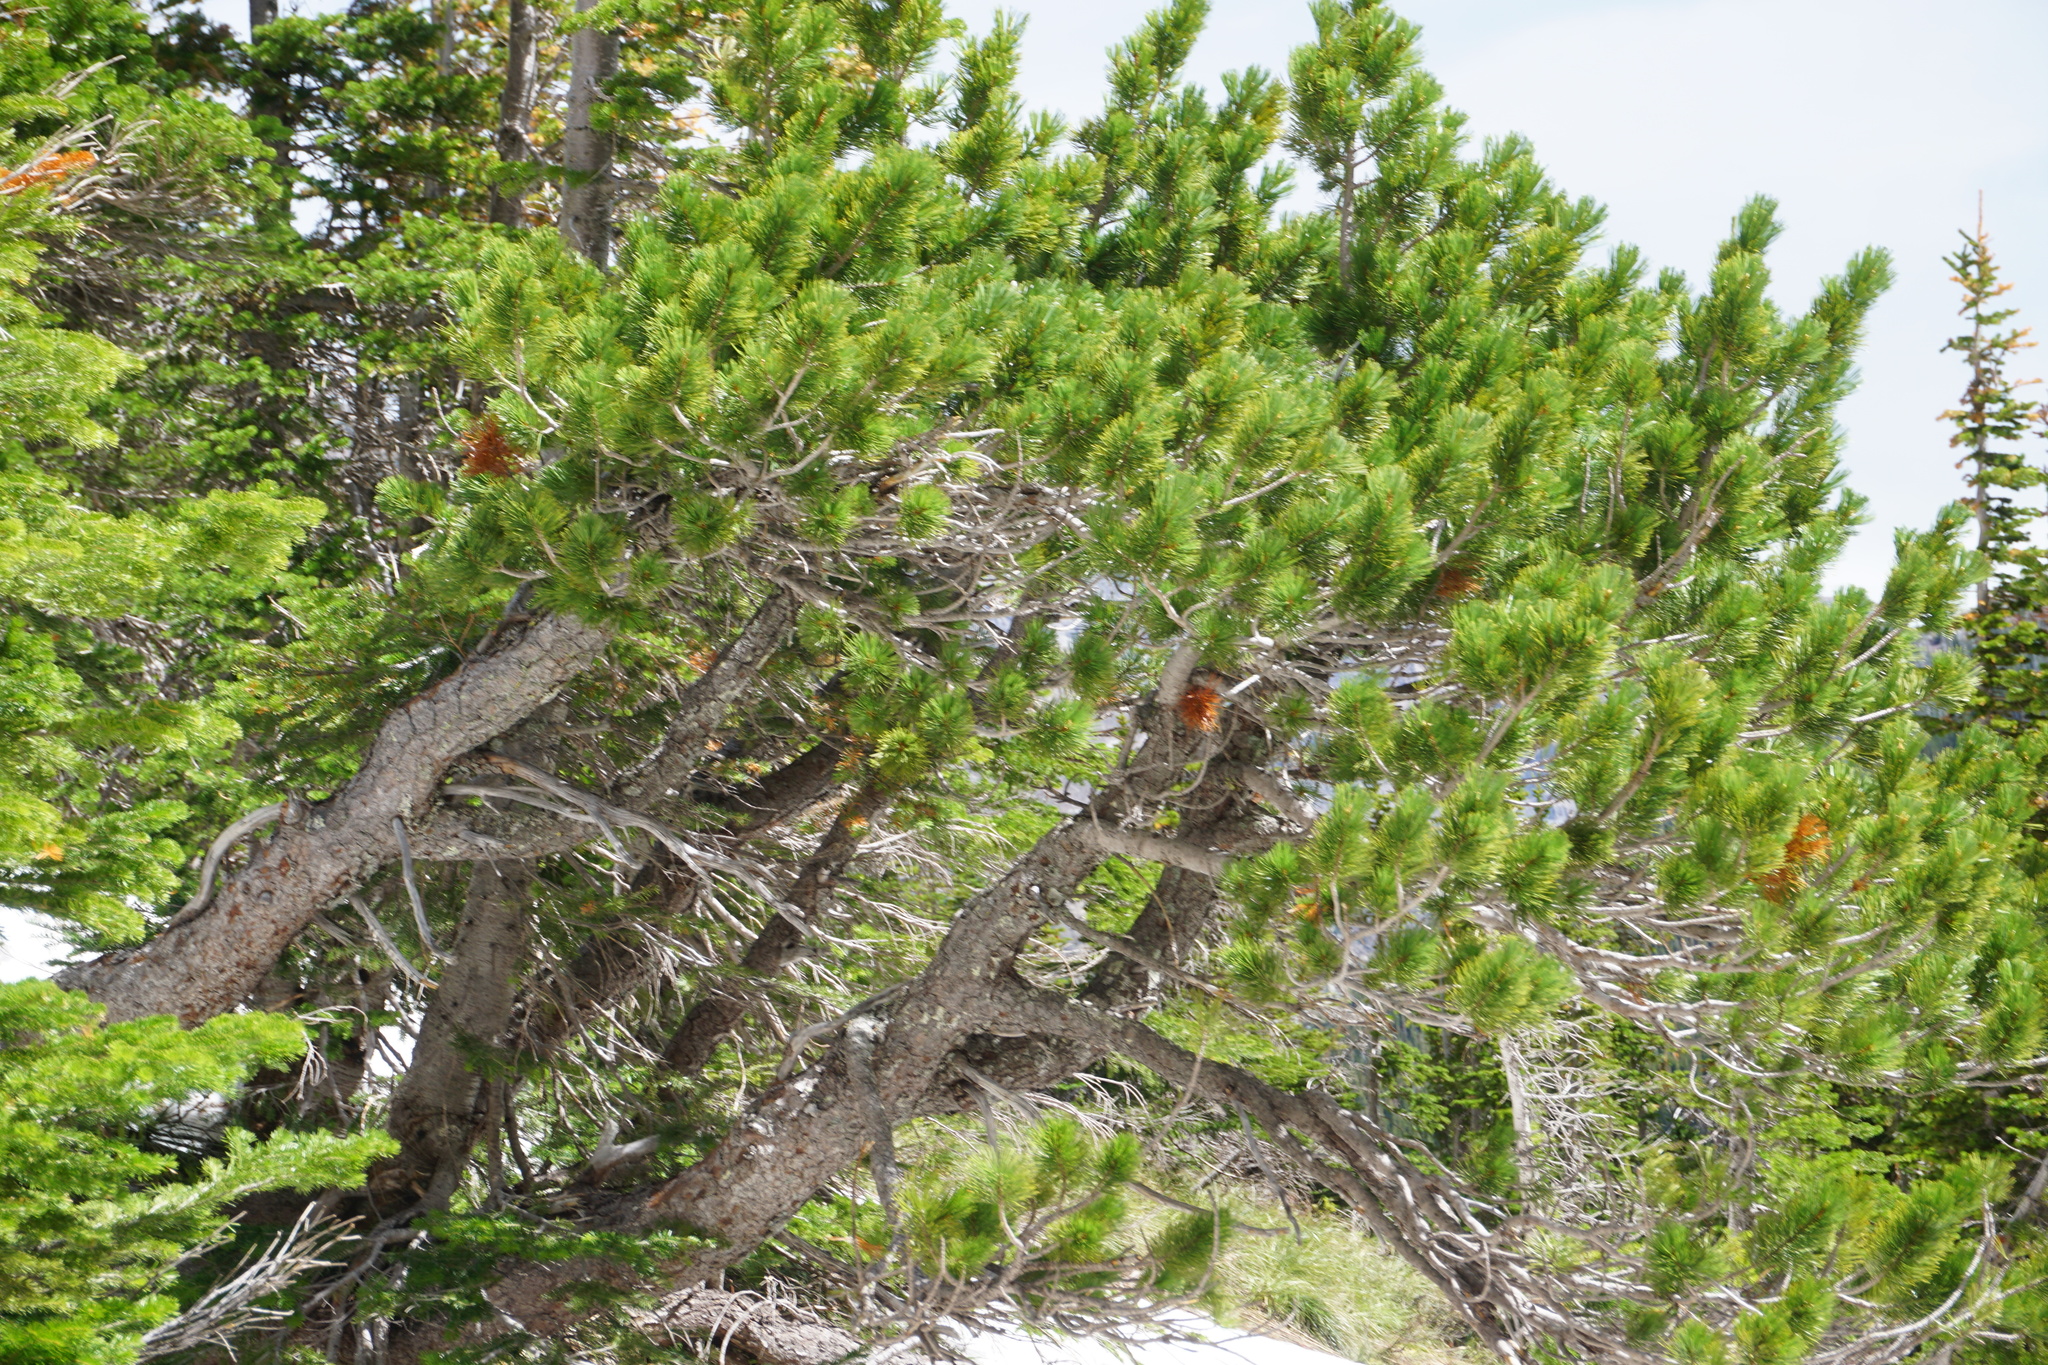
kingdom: Plantae
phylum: Tracheophyta
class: Pinopsida
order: Pinales
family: Pinaceae
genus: Pinus
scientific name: Pinus albicaulis
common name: Whitebark pine
